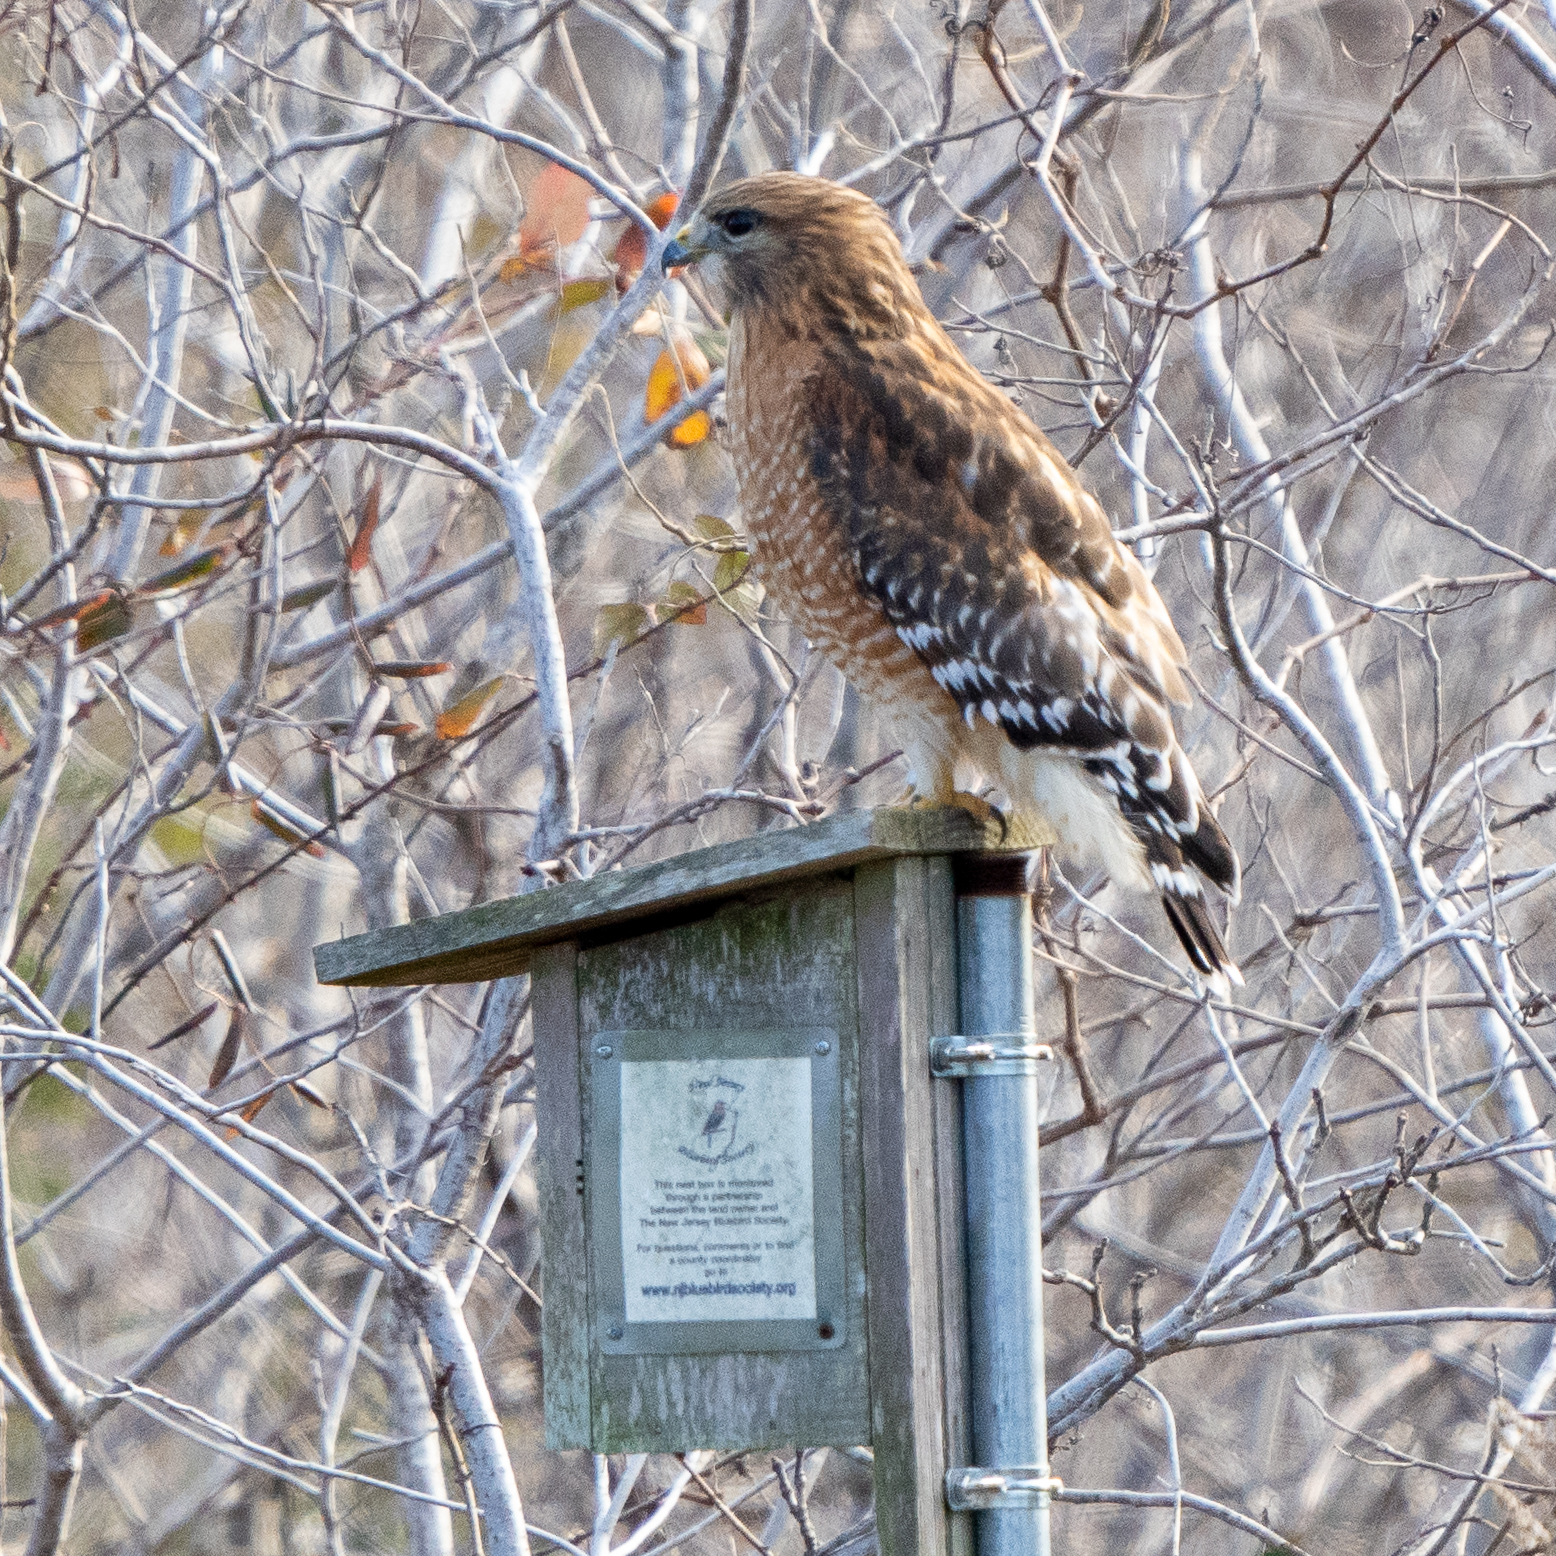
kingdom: Animalia
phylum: Chordata
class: Aves
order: Accipitriformes
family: Accipitridae
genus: Buteo
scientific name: Buteo lineatus
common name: Red-shouldered hawk
